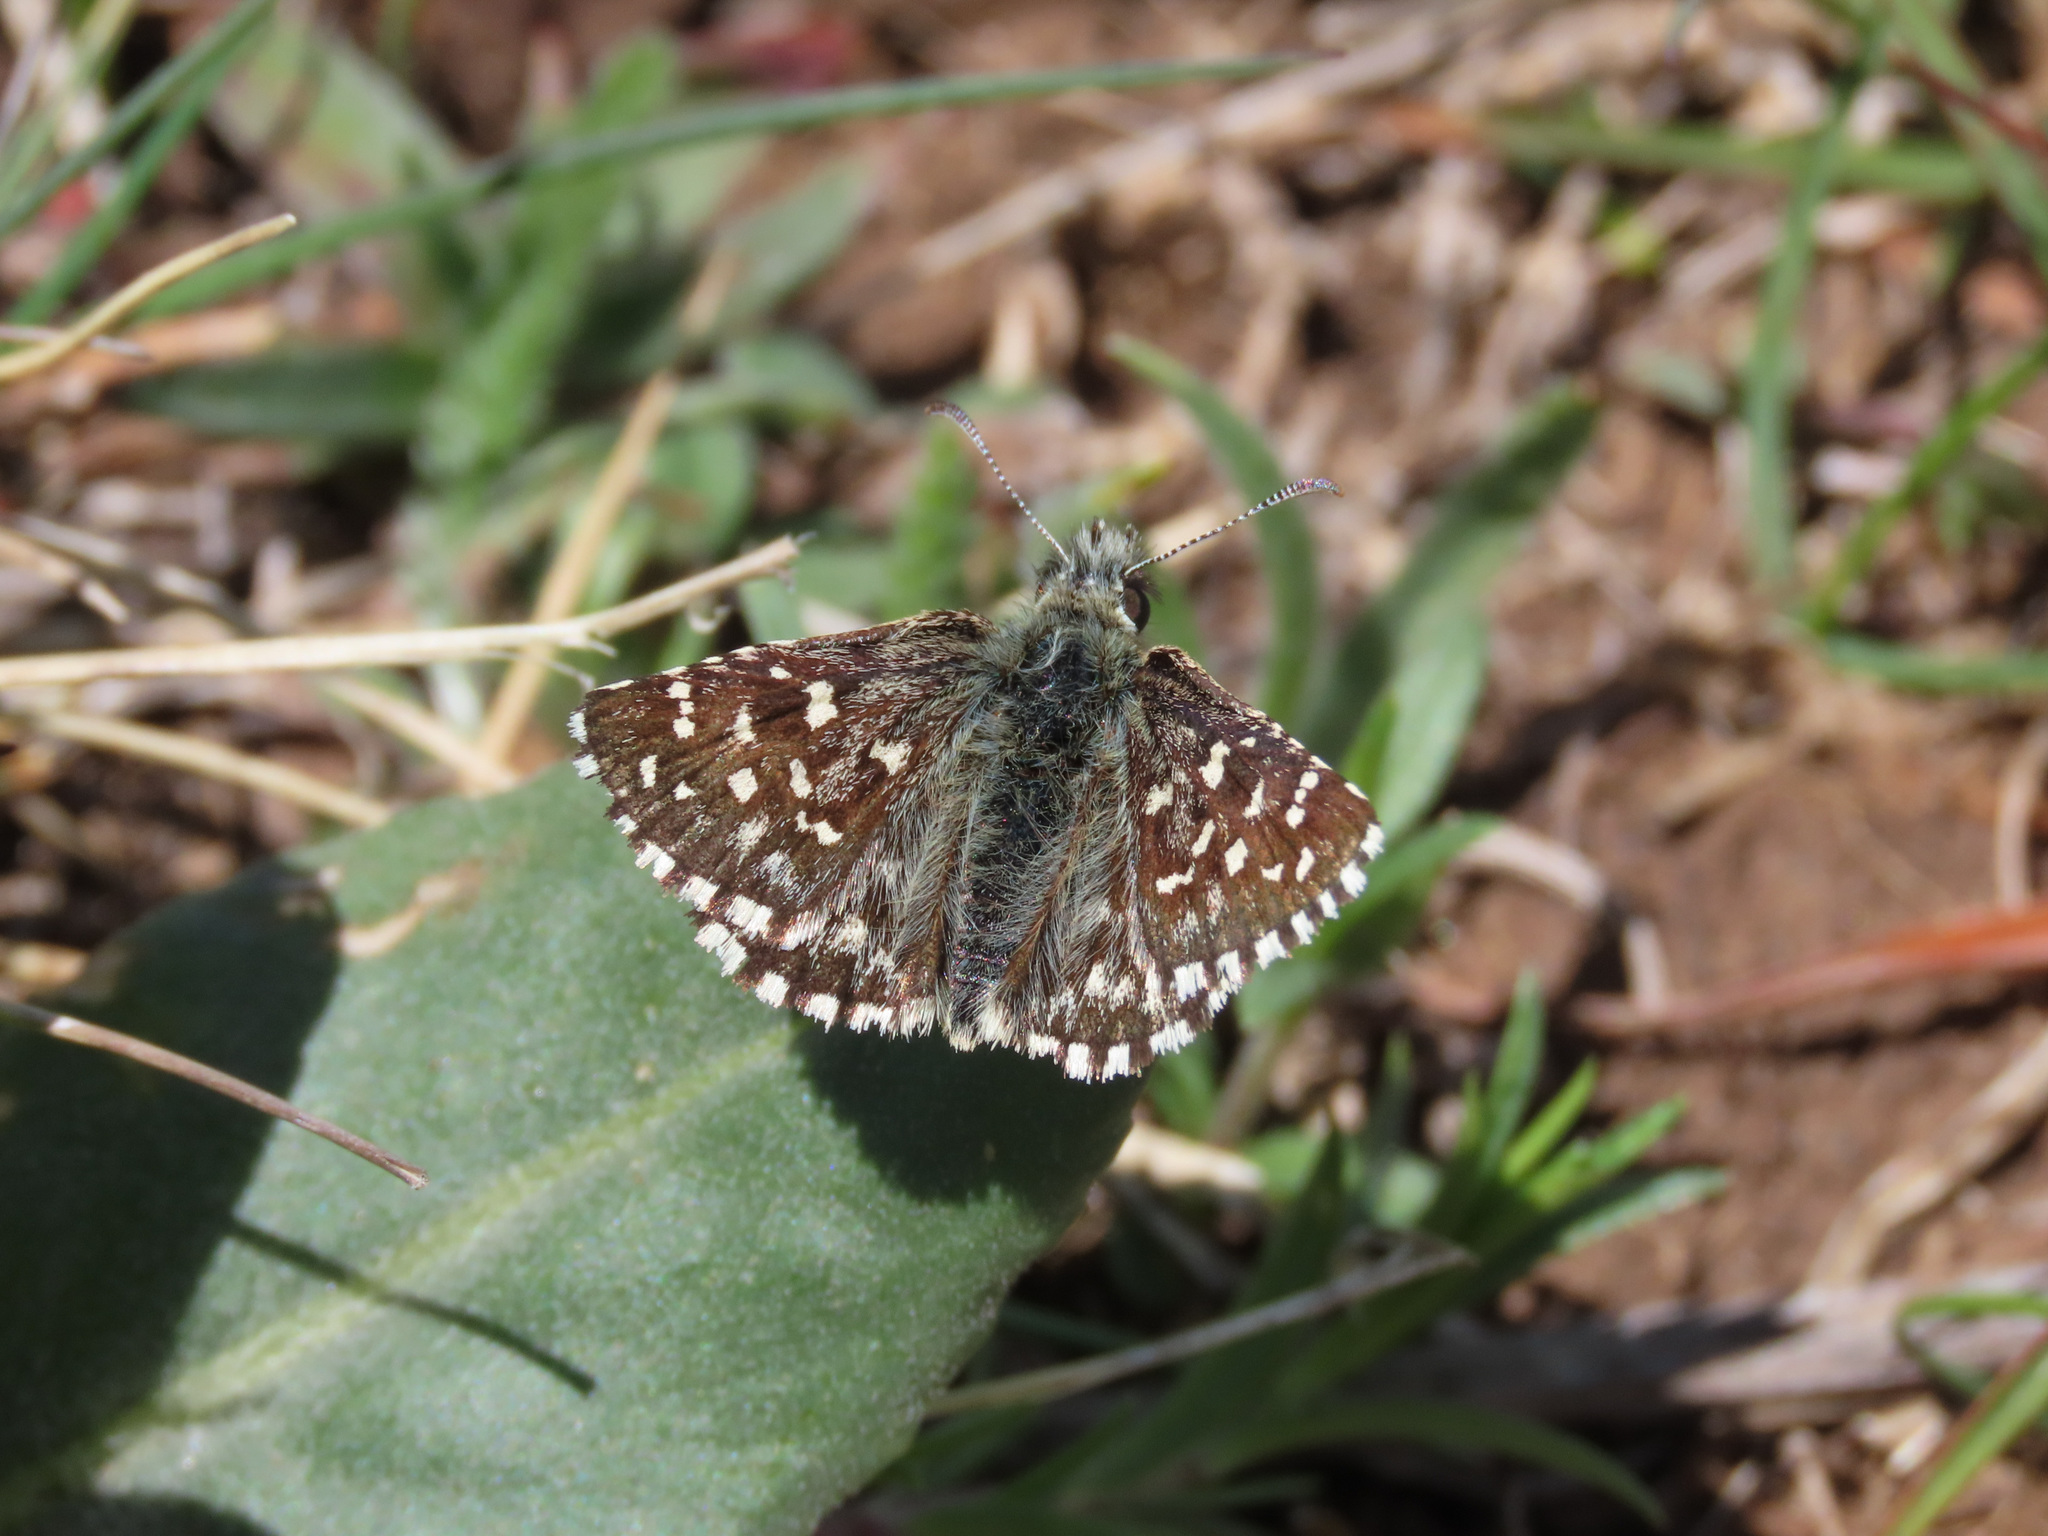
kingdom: Animalia
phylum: Arthropoda
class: Insecta
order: Lepidoptera
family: Hesperiidae
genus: Pyrgus
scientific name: Pyrgus malvoides
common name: Southern grizzled skipper
